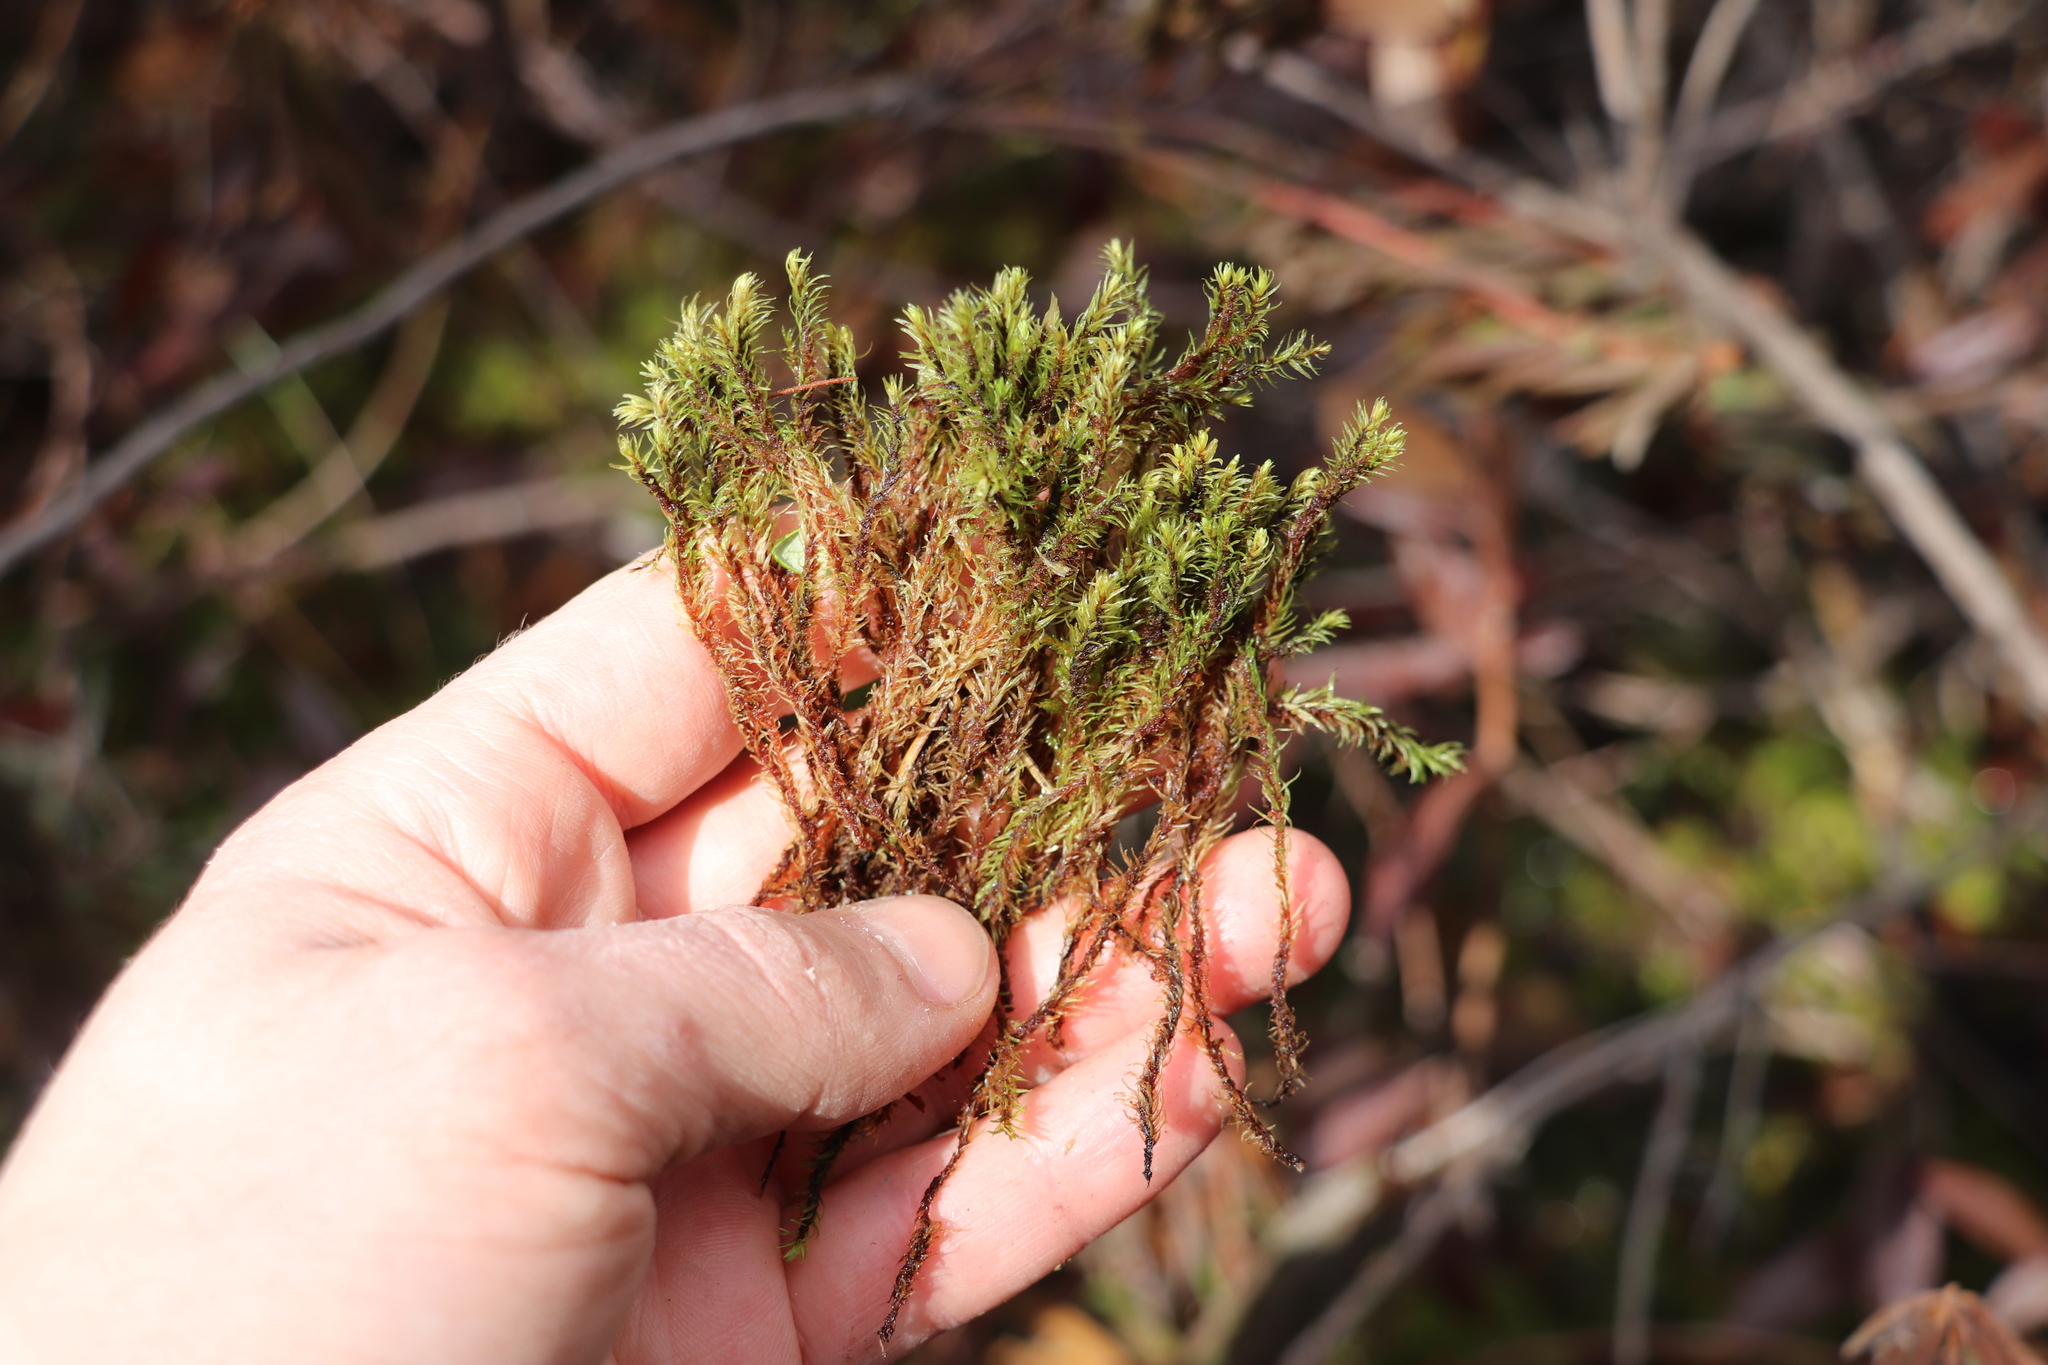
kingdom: Plantae
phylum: Bryophyta
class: Bryopsida
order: Aulacomniales
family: Aulacomniaceae
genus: Aulacomnium
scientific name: Aulacomnium palustre
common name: Bog groove-moss
